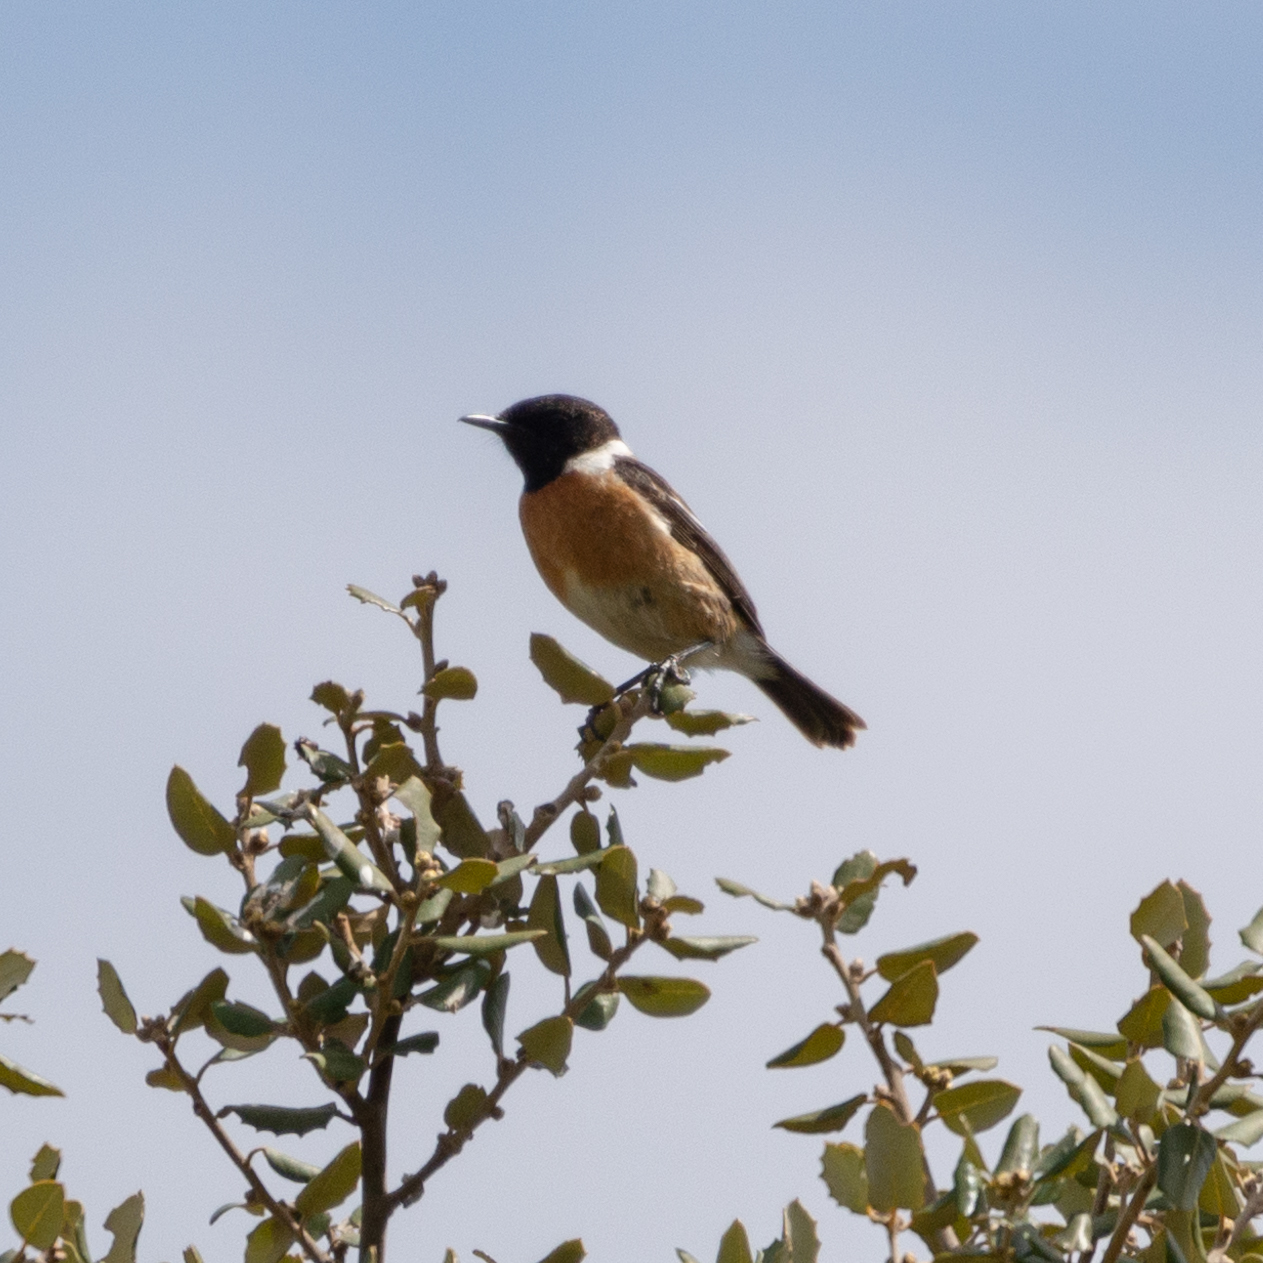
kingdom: Animalia
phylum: Chordata
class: Aves
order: Passeriformes
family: Muscicapidae
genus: Saxicola
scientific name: Saxicola rubicola
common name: European stonechat
